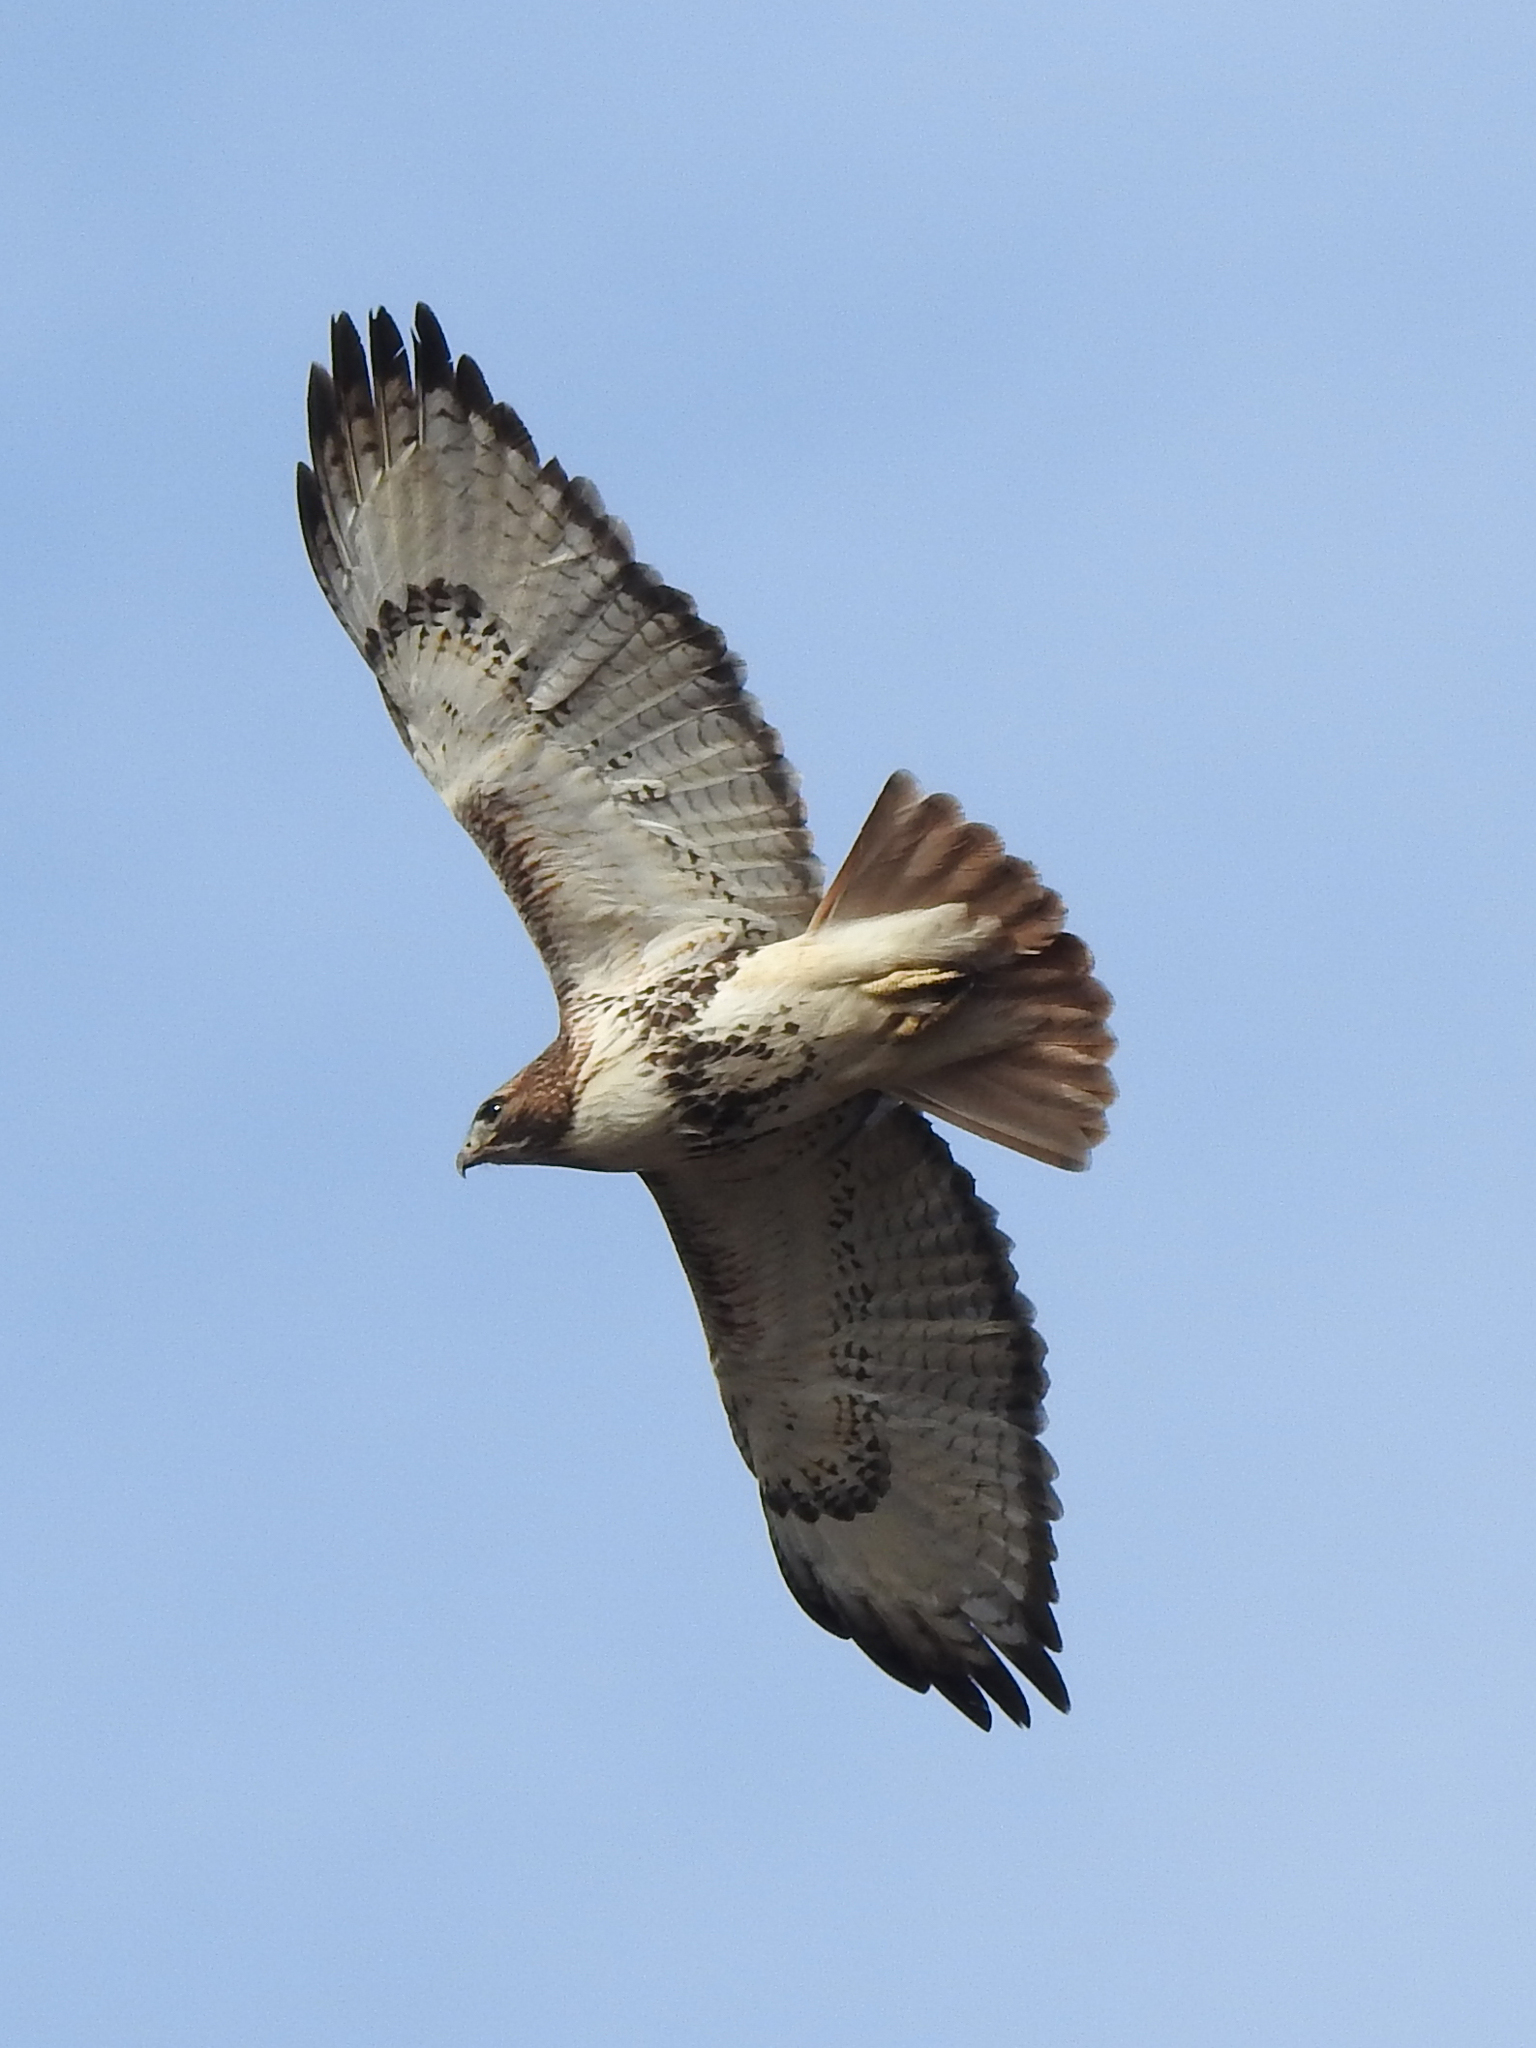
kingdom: Animalia
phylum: Chordata
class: Aves
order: Accipitriformes
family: Accipitridae
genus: Buteo
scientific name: Buteo jamaicensis
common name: Red-tailed hawk
